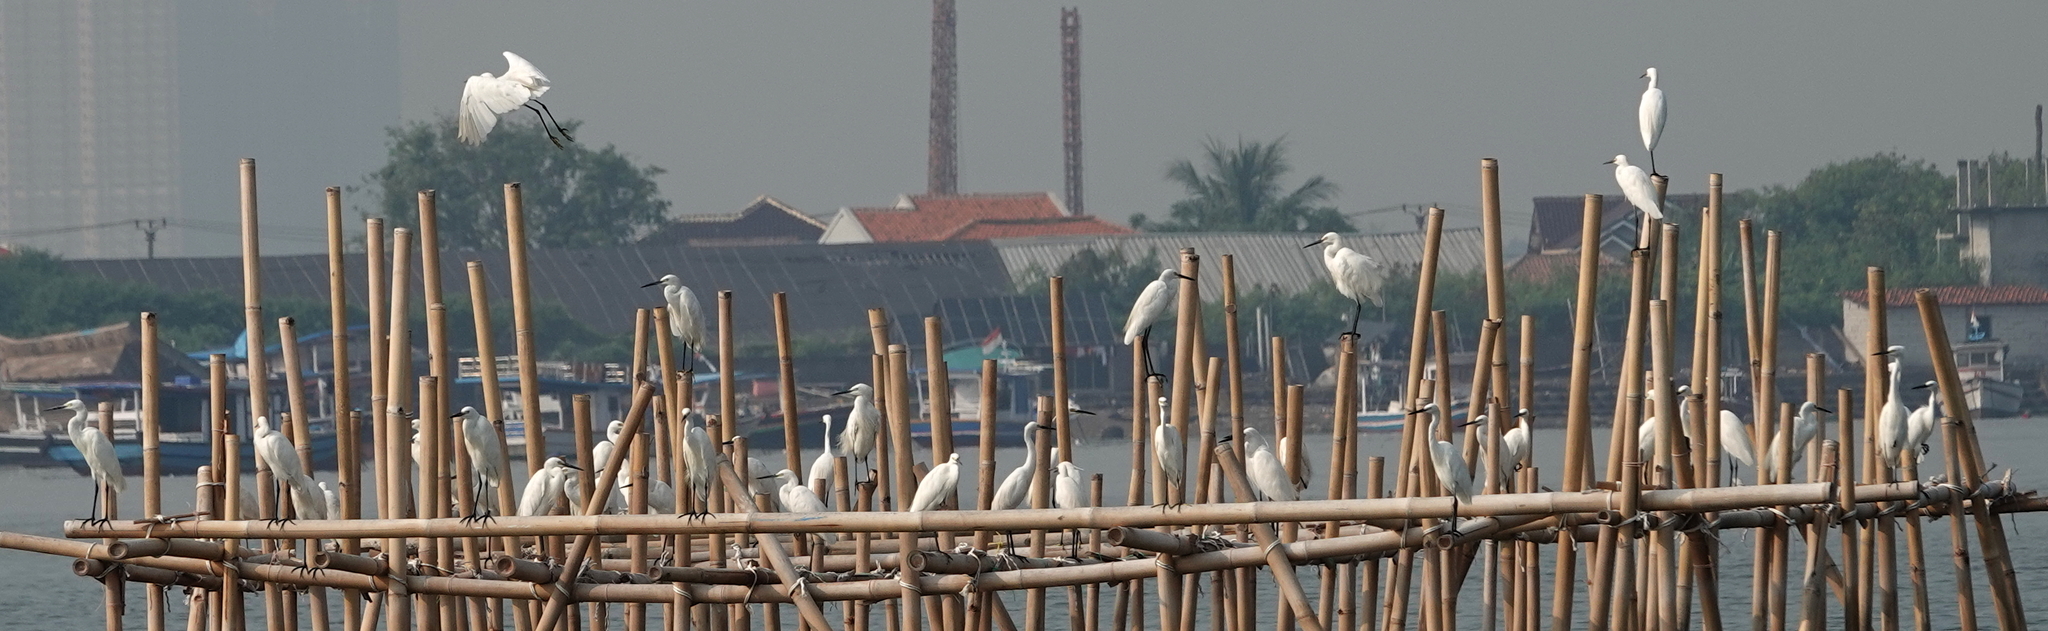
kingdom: Animalia
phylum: Chordata
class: Aves
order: Pelecaniformes
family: Ardeidae
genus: Egretta
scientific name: Egretta garzetta
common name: Little egret
